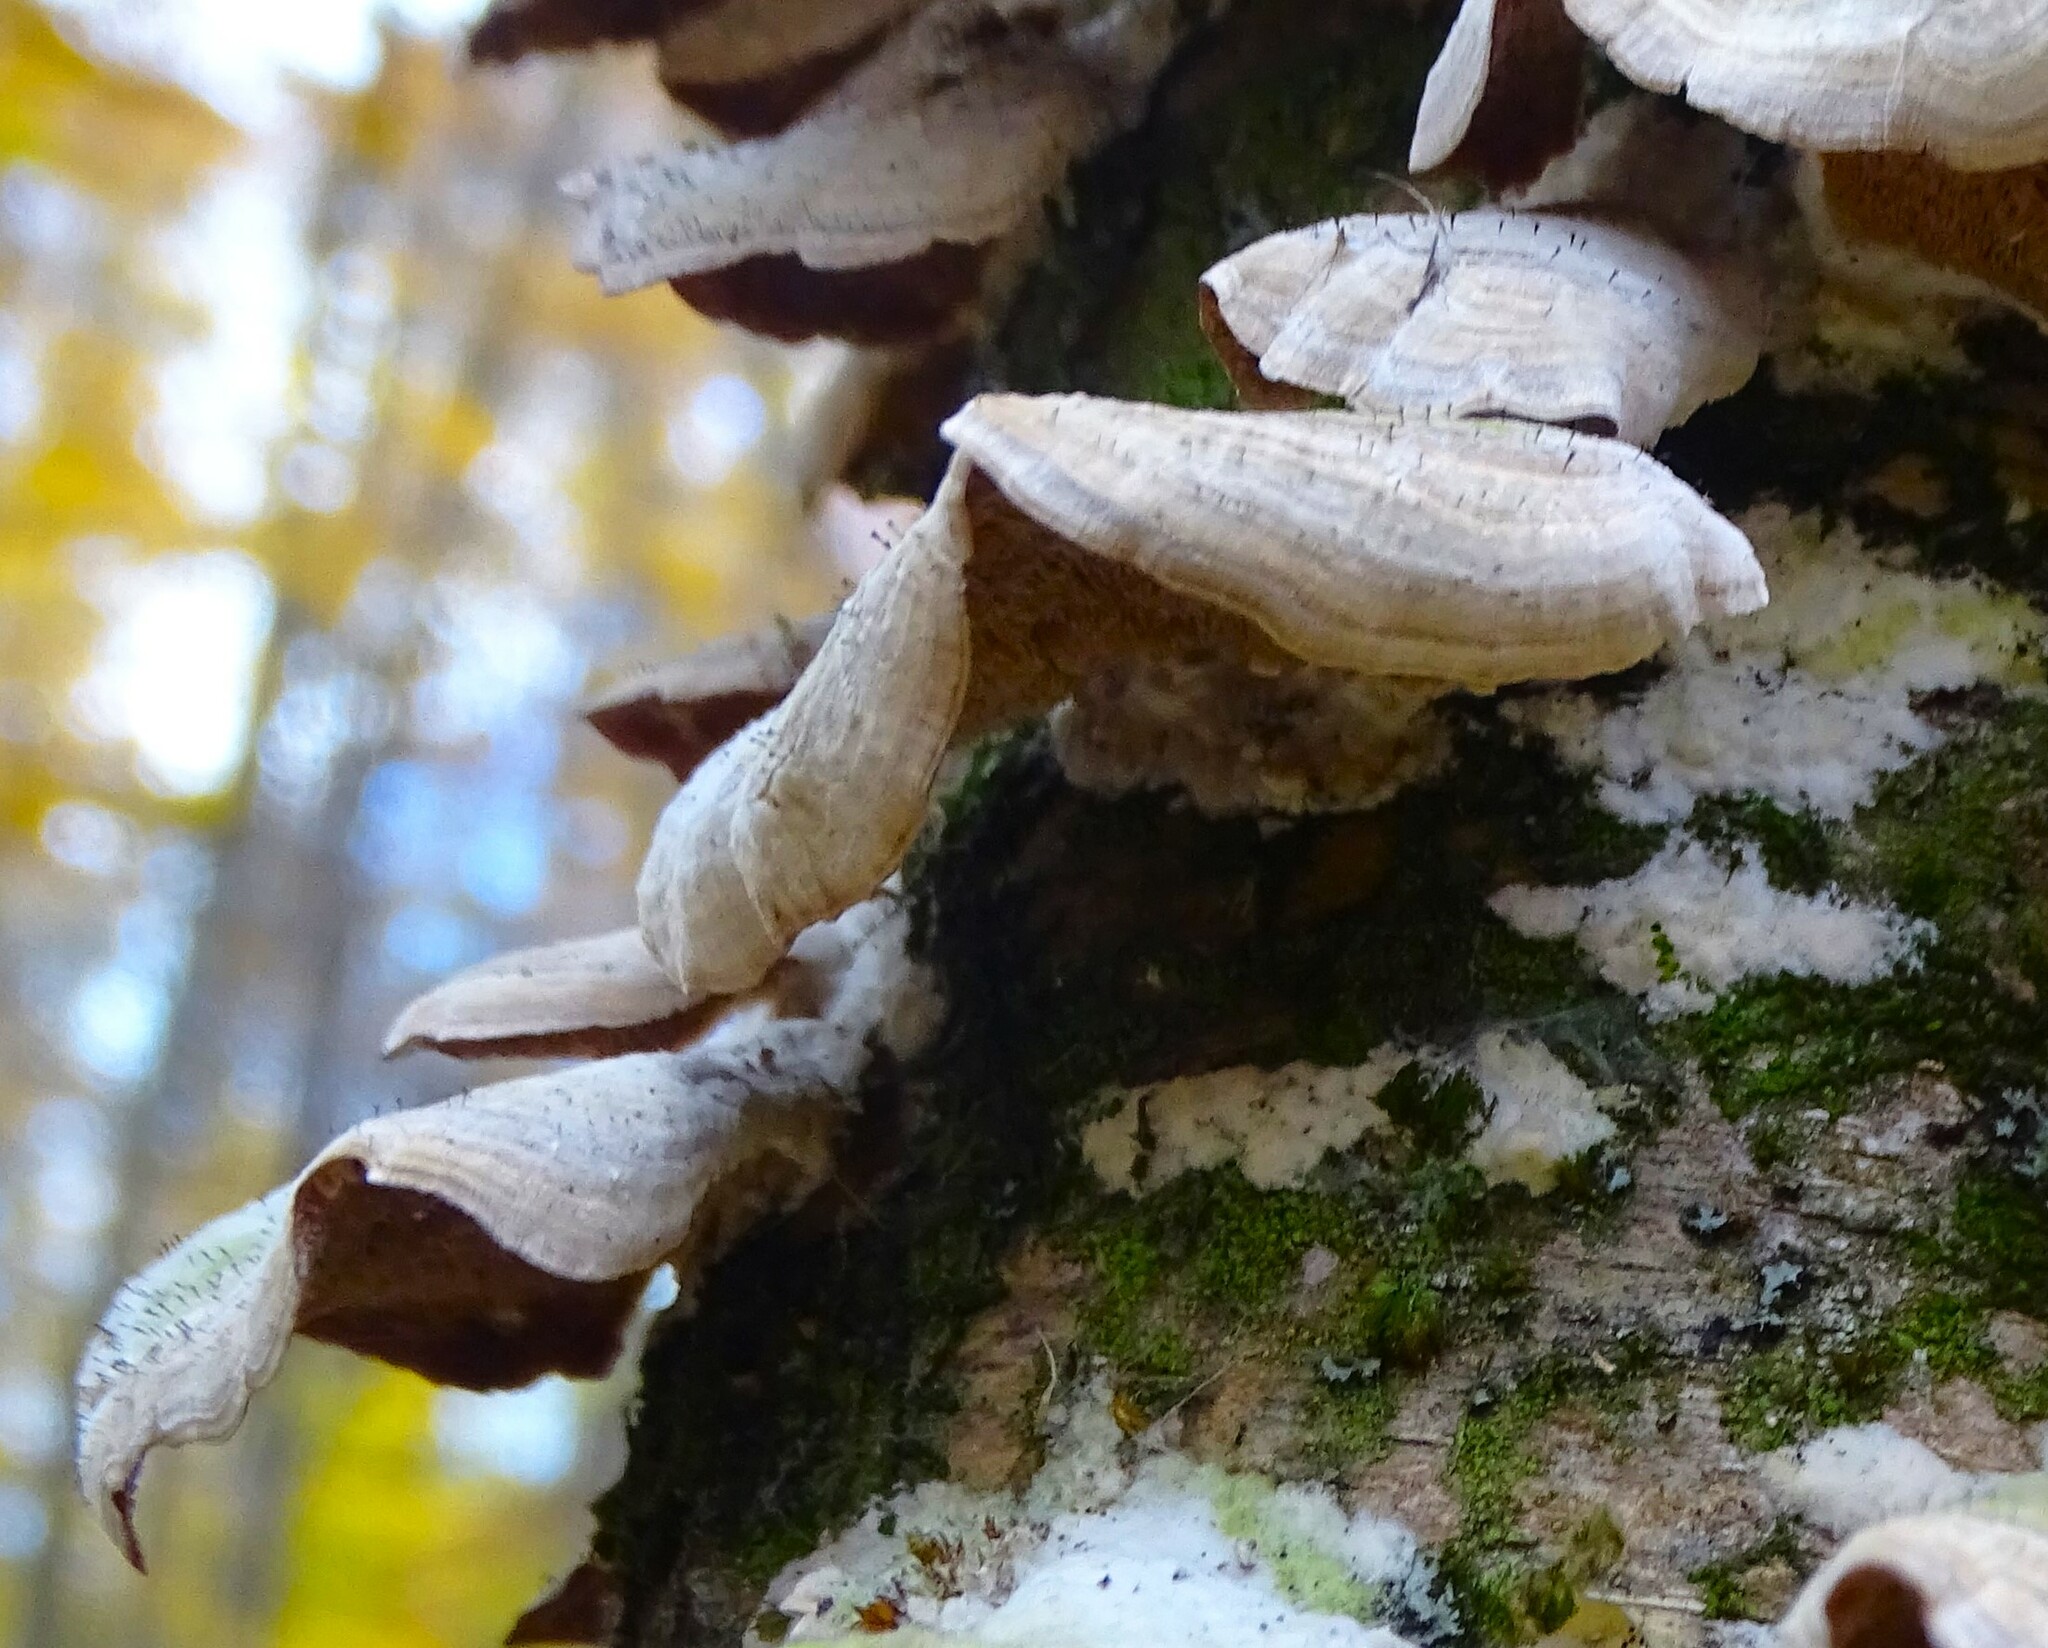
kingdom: Fungi
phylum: Ascomycota
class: Eurotiomycetes
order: Mycocaliciales
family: Mycocaliciaceae
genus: Phaeocalicium
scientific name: Phaeocalicium polyporaeum
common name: Fairy pins
